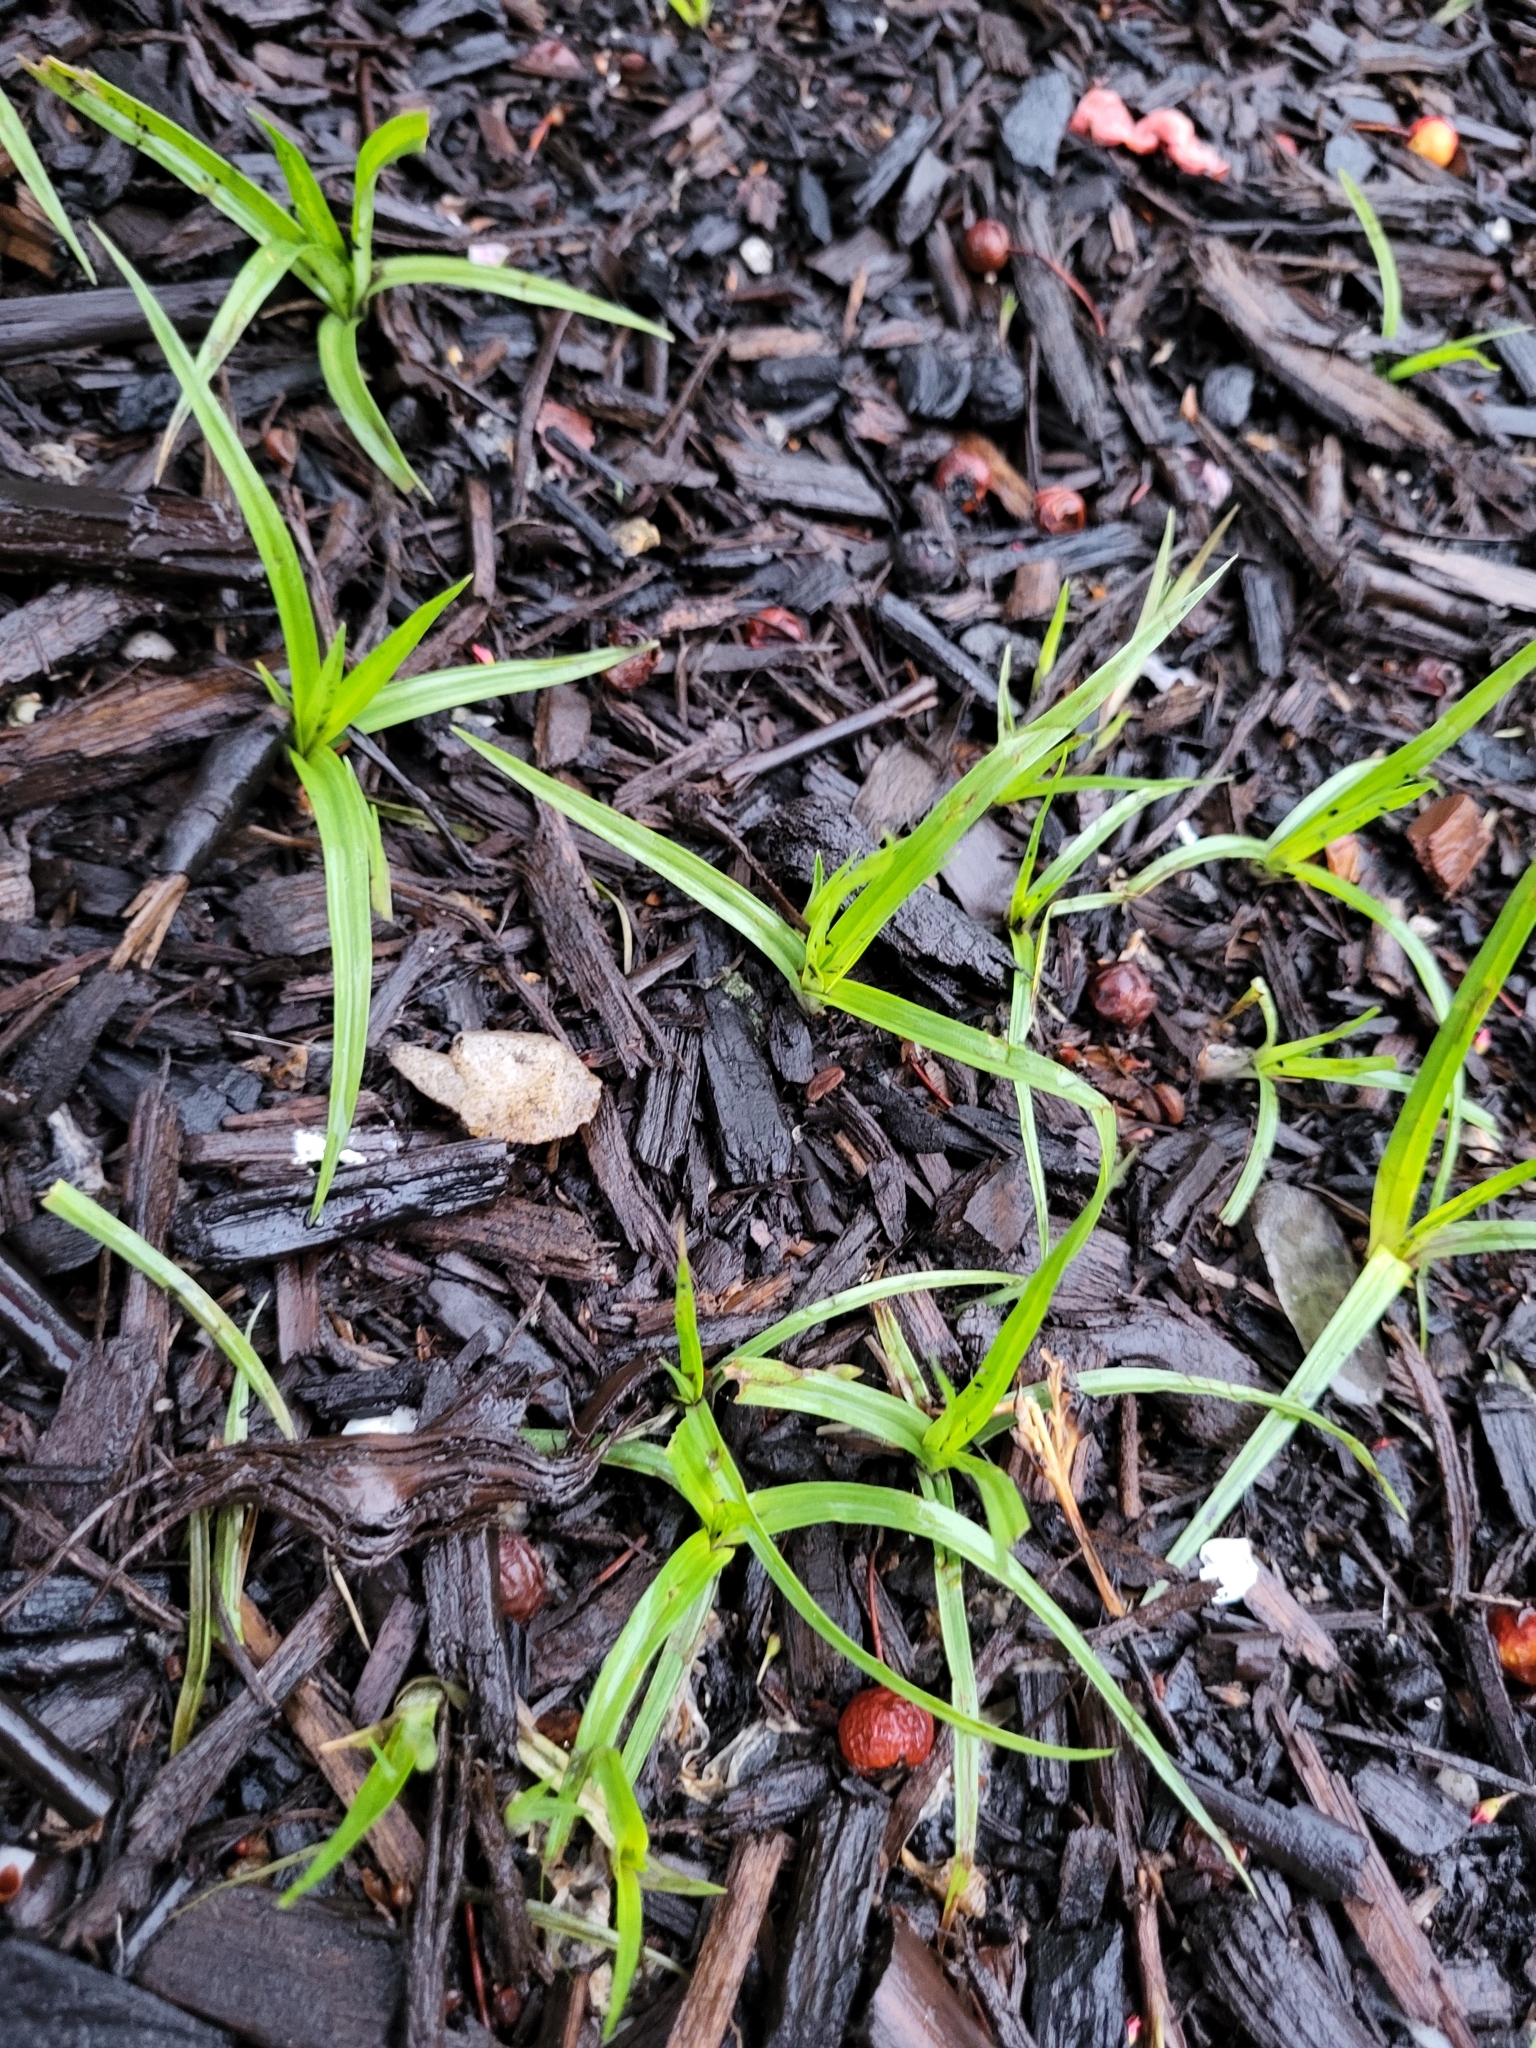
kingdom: Plantae
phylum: Tracheophyta
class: Liliopsida
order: Poales
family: Cyperaceae
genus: Cyperus
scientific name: Cyperus esculentus
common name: Yellow nutsedge
